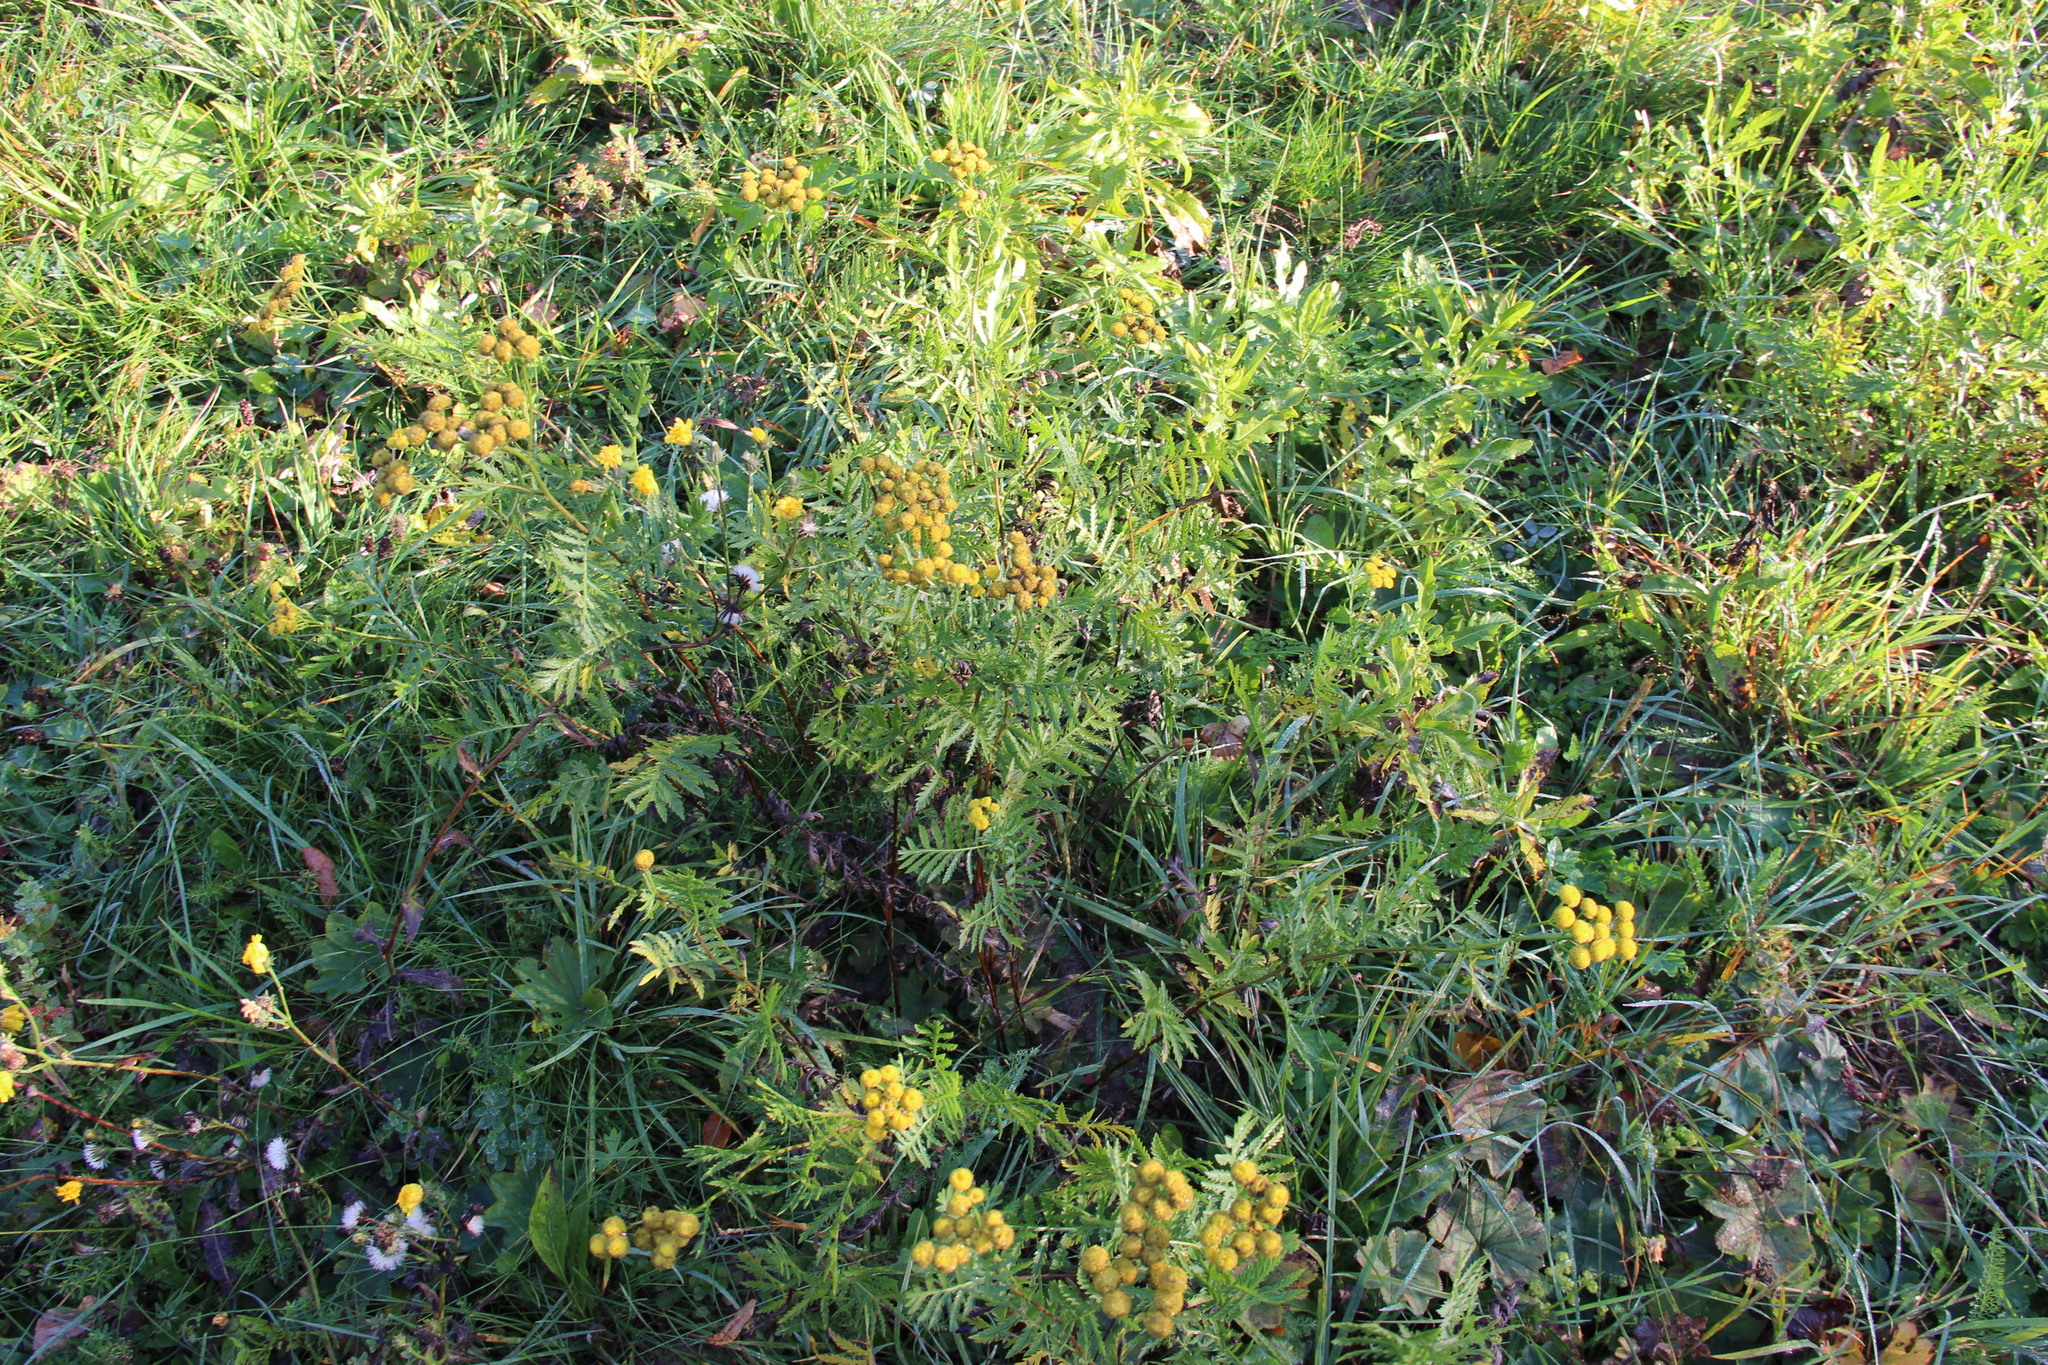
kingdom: Plantae
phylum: Tracheophyta
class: Magnoliopsida
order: Asterales
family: Asteraceae
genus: Tanacetum
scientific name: Tanacetum vulgare
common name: Common tansy
